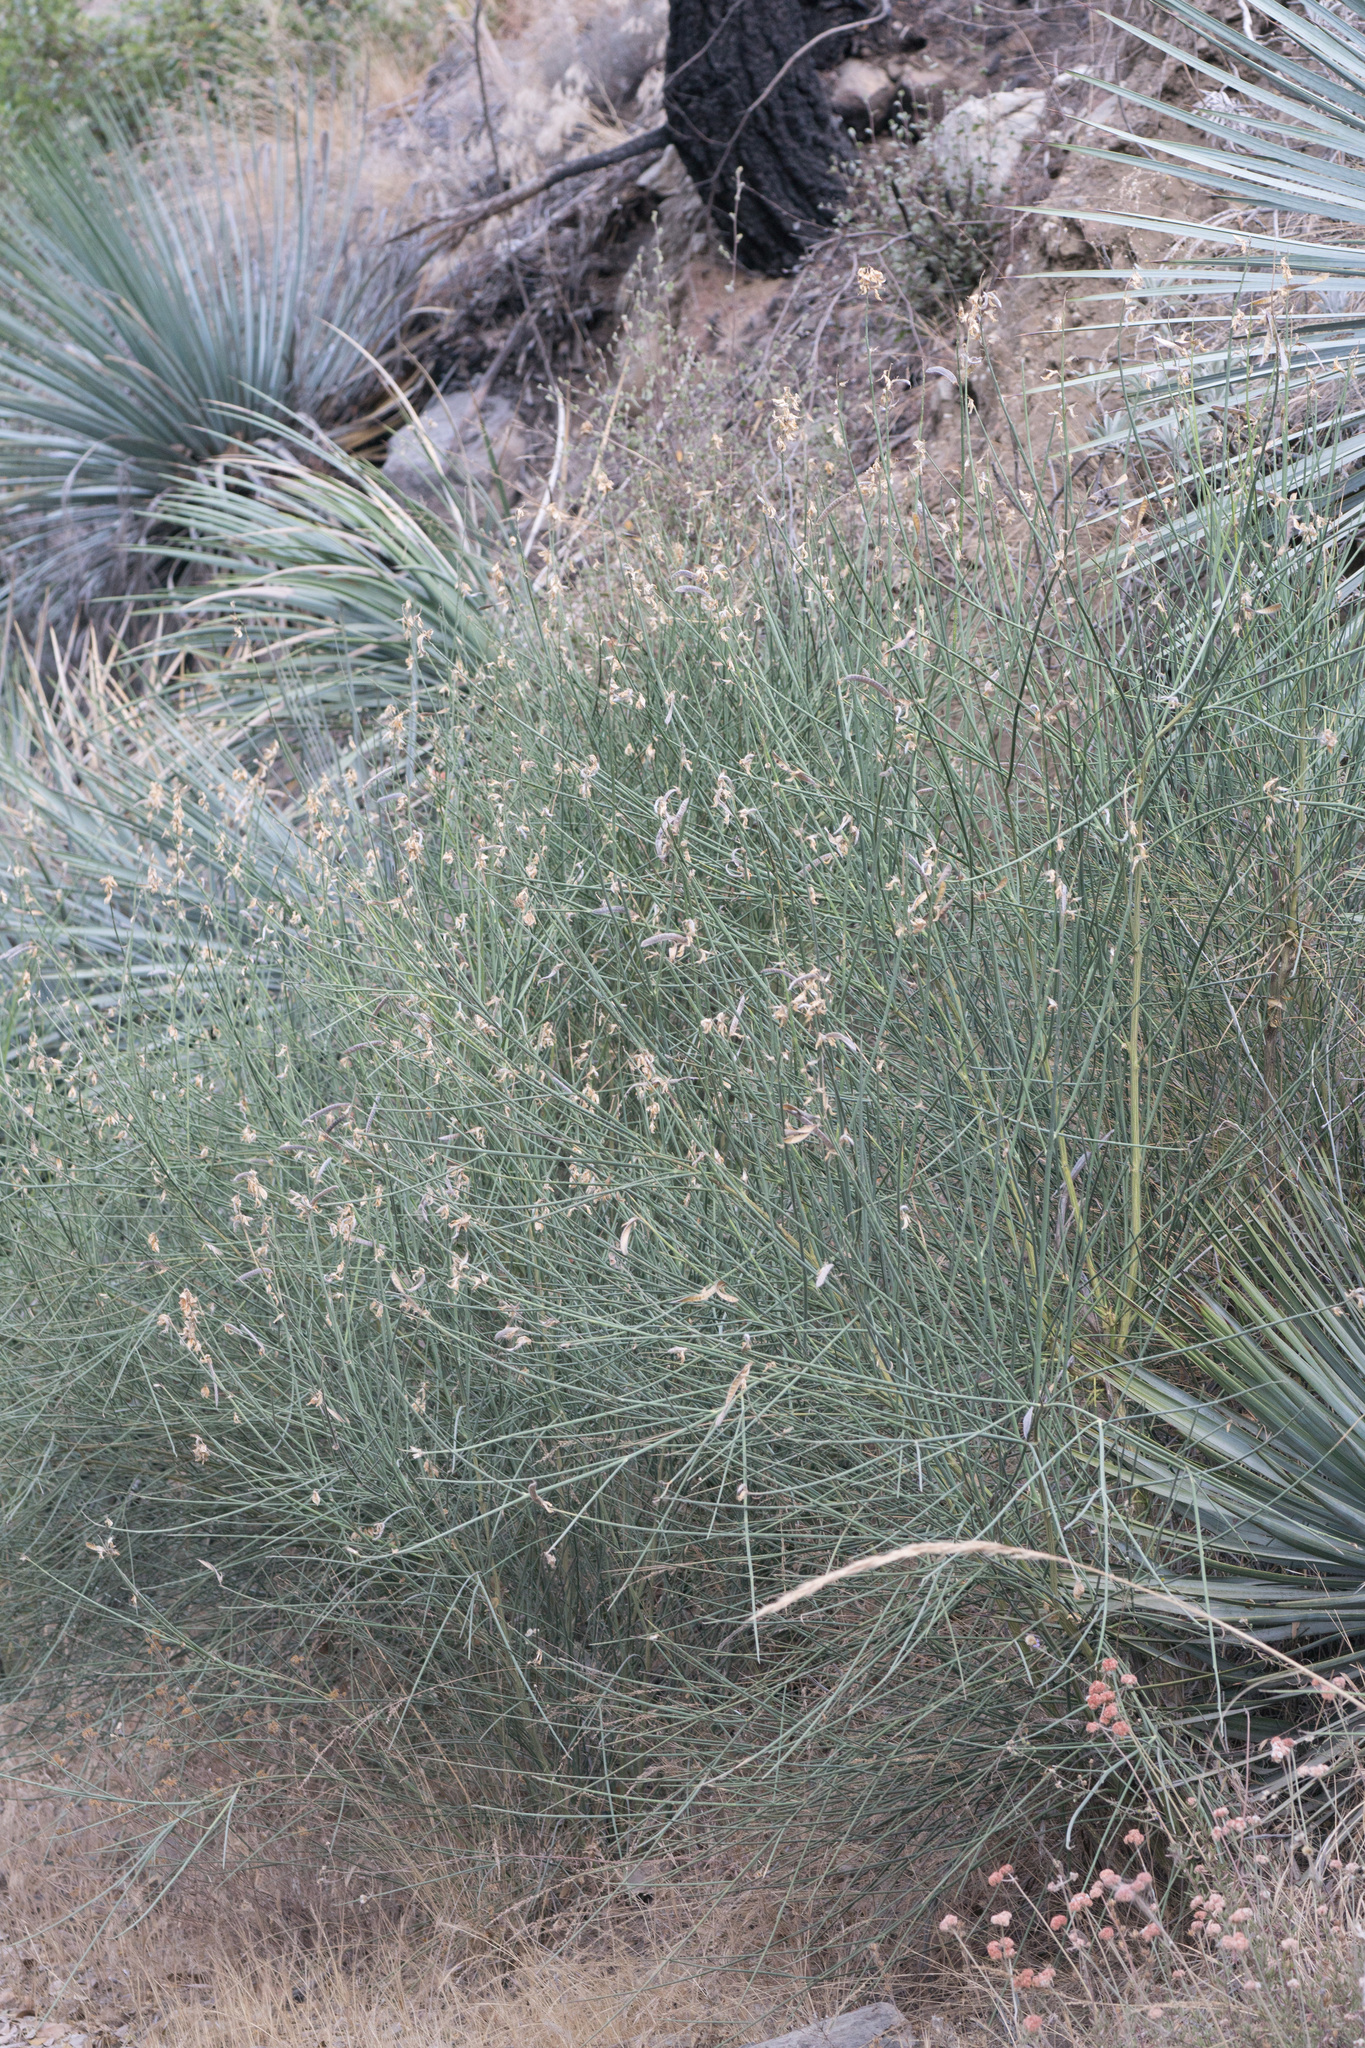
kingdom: Plantae
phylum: Tracheophyta
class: Magnoliopsida
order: Fabales
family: Fabaceae
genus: Spartium
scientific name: Spartium junceum
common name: Spanish broom
